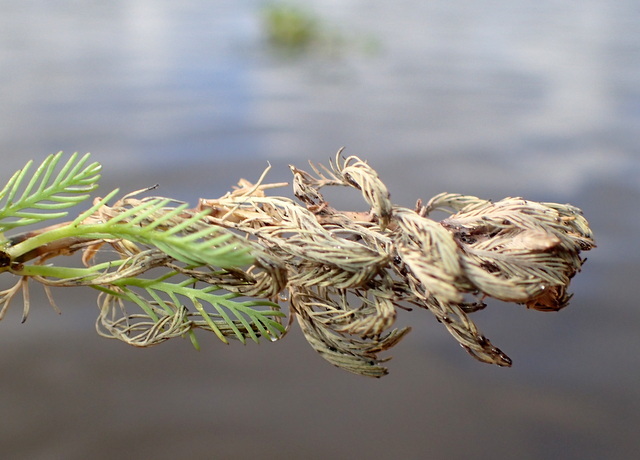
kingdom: Plantae
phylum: Tracheophyta
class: Magnoliopsida
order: Saxifragales
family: Haloragaceae
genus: Myriophyllum
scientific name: Myriophyllum aquaticum
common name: Parrot's feather
